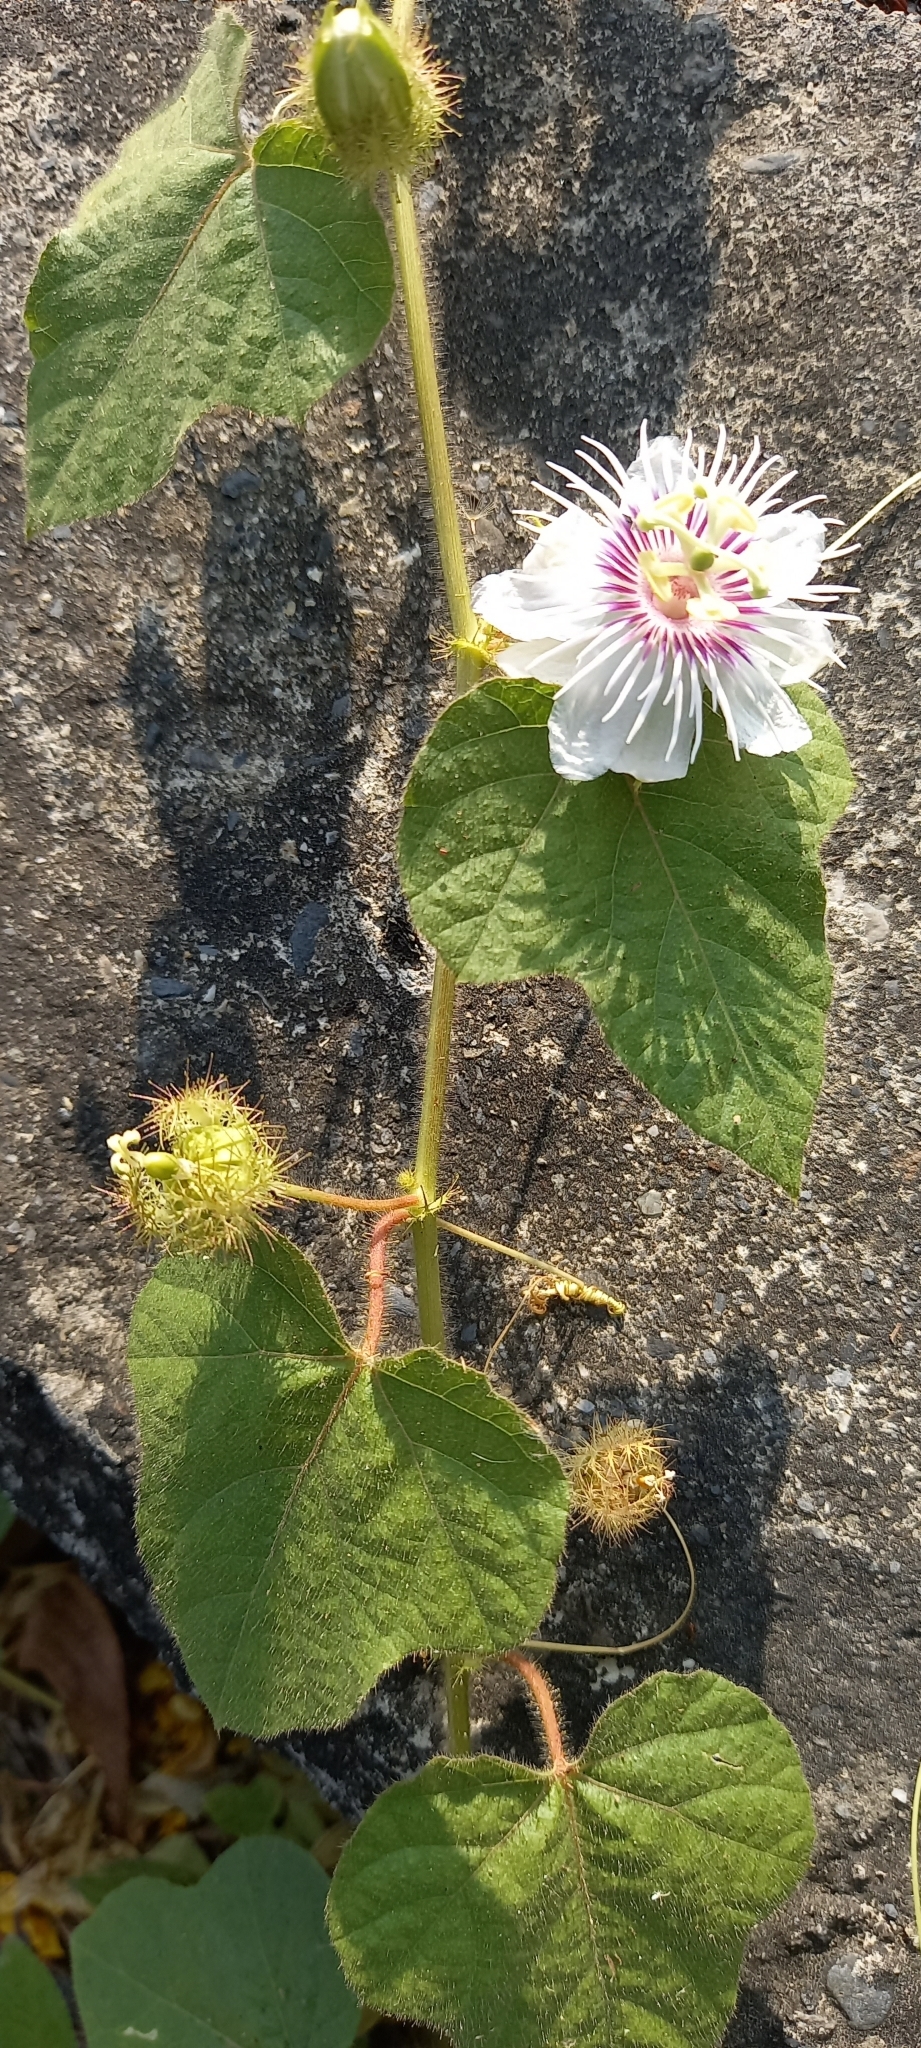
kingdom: Plantae
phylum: Tracheophyta
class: Magnoliopsida
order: Malpighiales
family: Passifloraceae
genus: Passiflora
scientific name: Passiflora vesicaria
